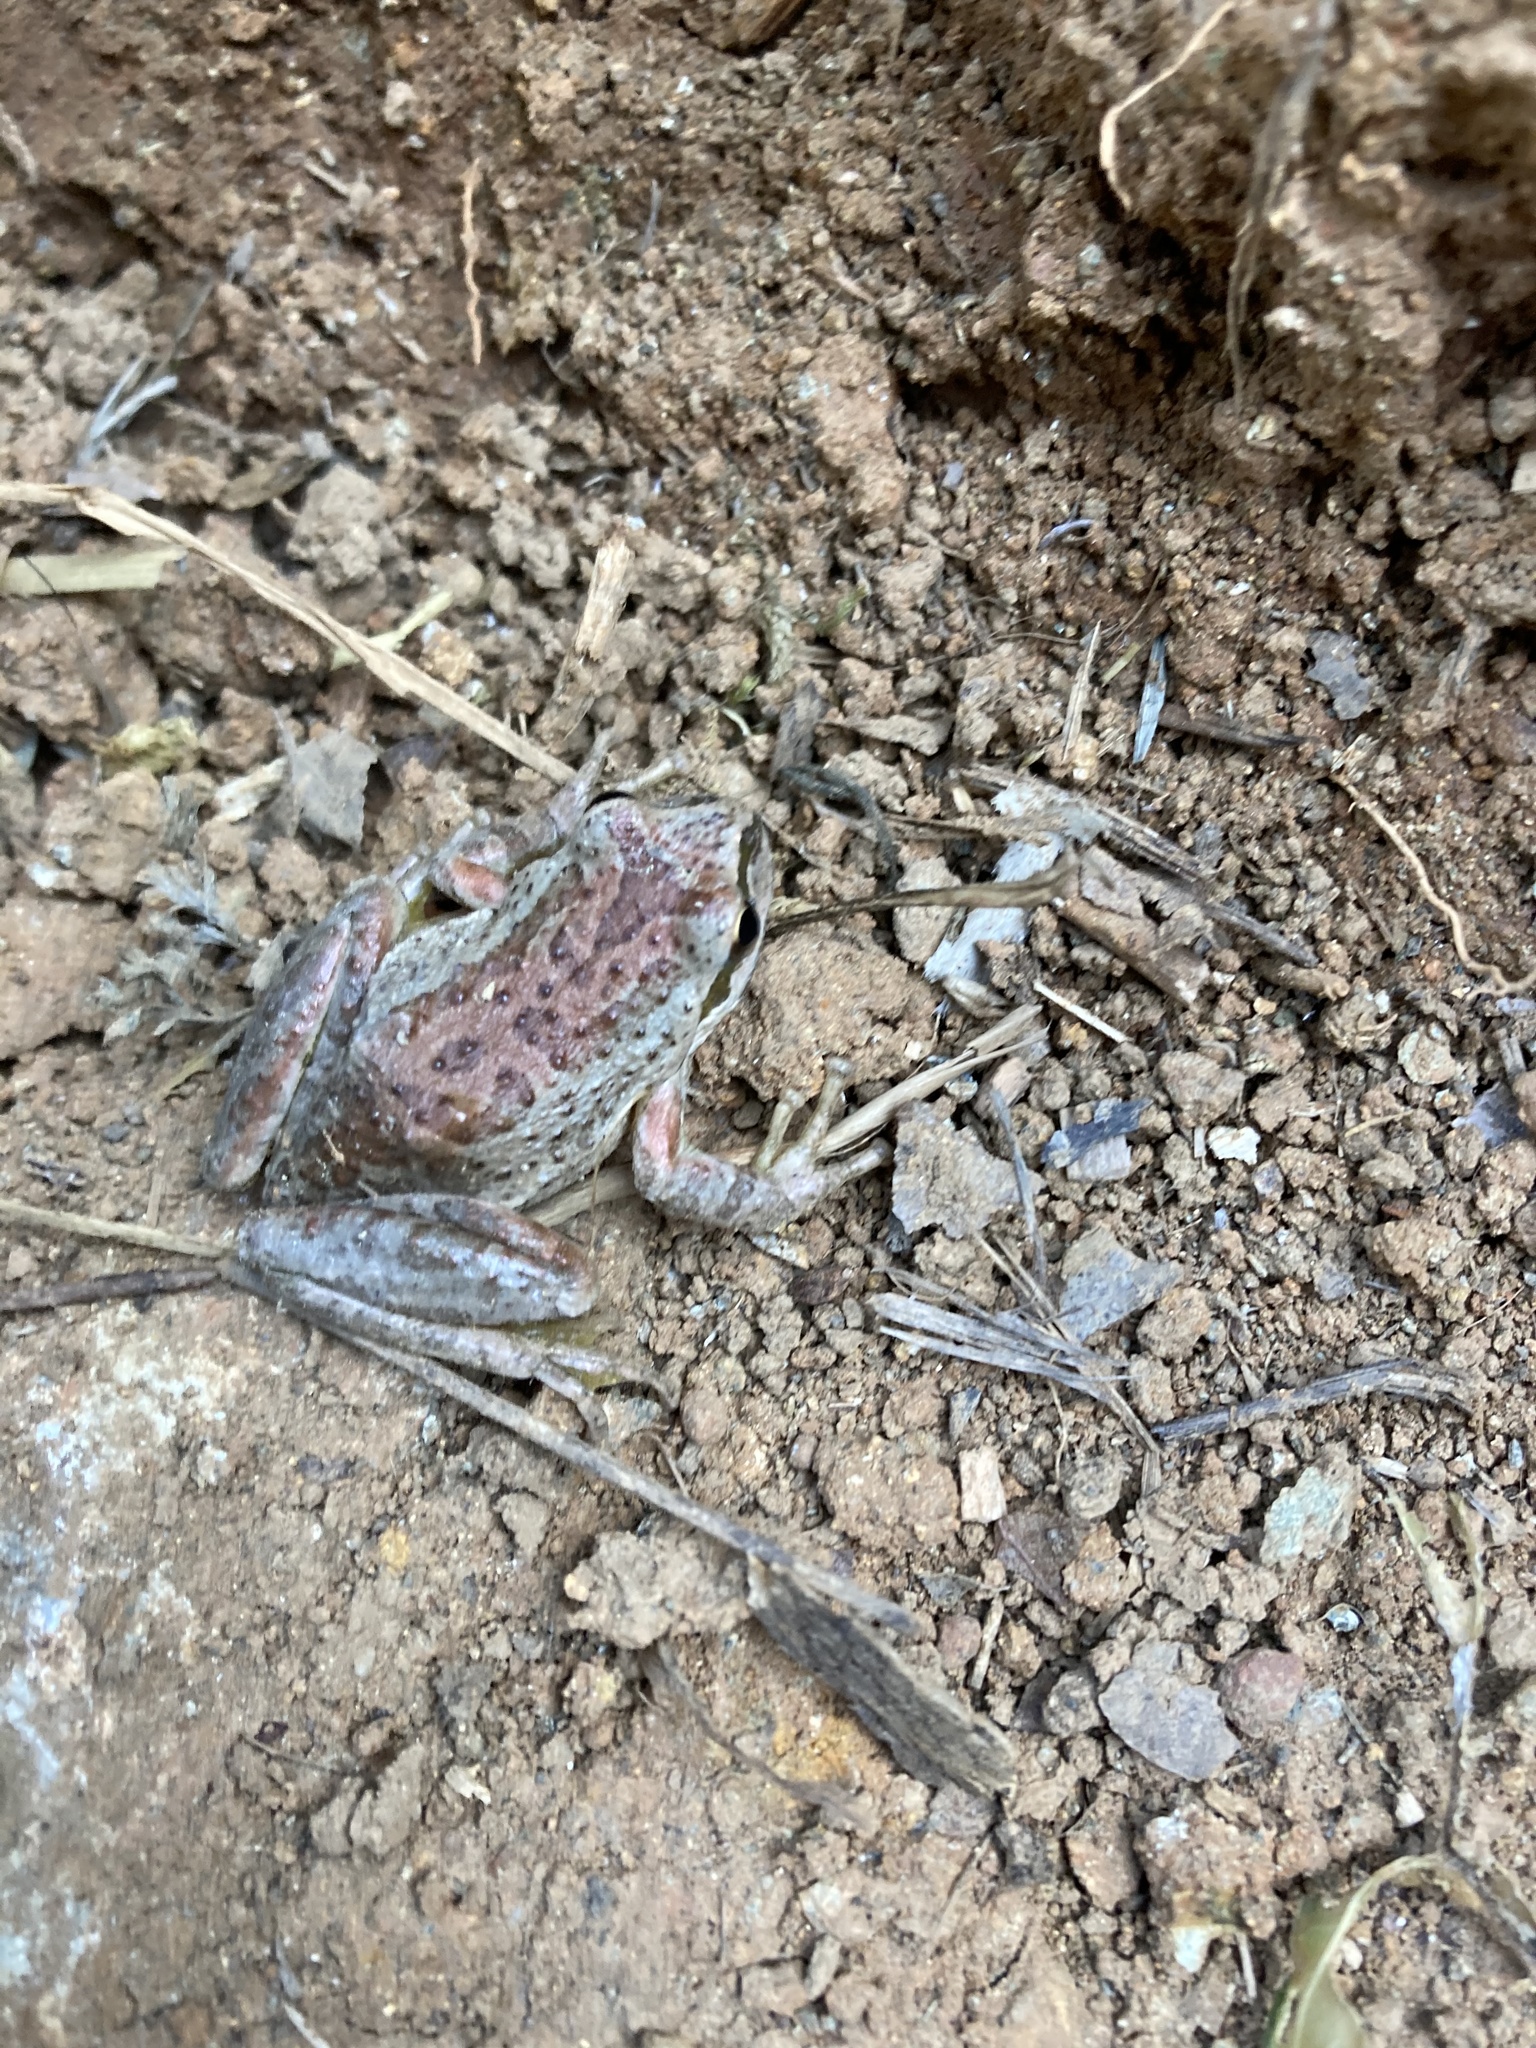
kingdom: Animalia
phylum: Chordata
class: Amphibia
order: Anura
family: Hylidae
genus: Pseudacris
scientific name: Pseudacris regilla
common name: Pacific chorus frog
